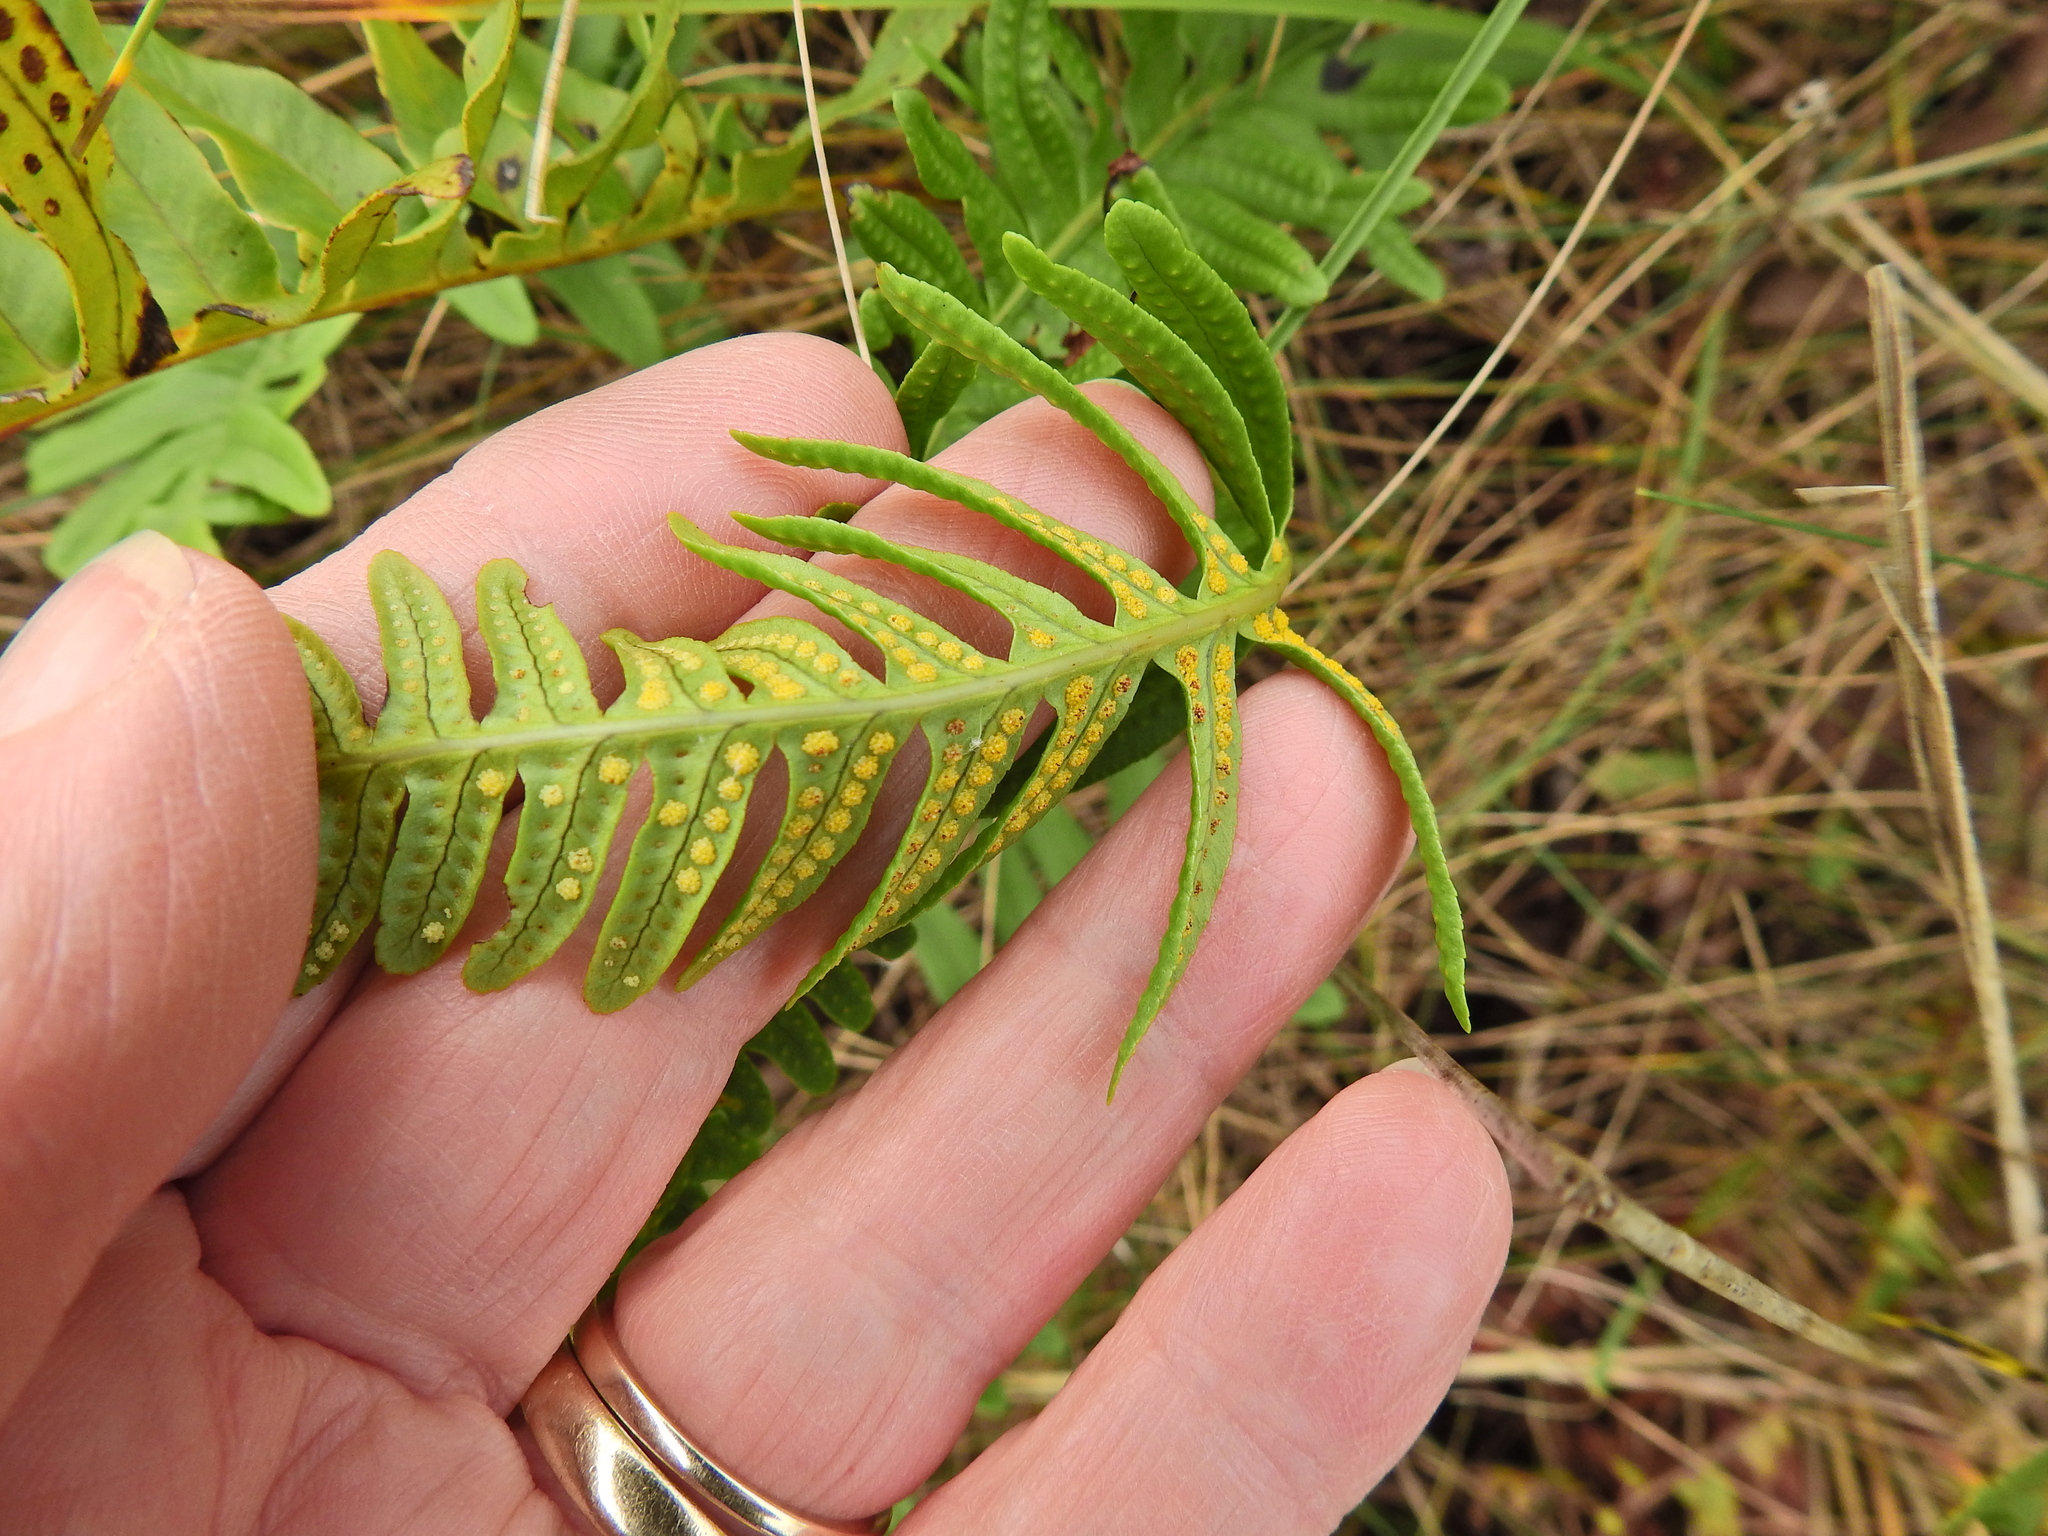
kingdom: Plantae
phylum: Tracheophyta
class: Polypodiopsida
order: Polypodiales
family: Polypodiaceae
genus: Polypodium
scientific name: Polypodium vulgare
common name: Common polypody
